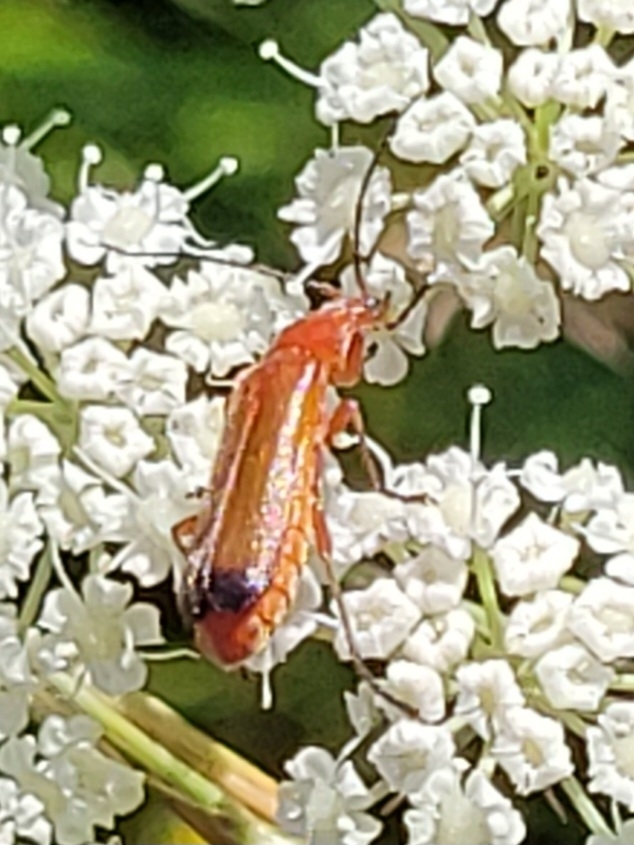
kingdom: Animalia
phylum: Arthropoda
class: Insecta
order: Coleoptera
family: Cantharidae
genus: Rhagonycha
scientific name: Rhagonycha fulva
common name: Common red soldier beetle
